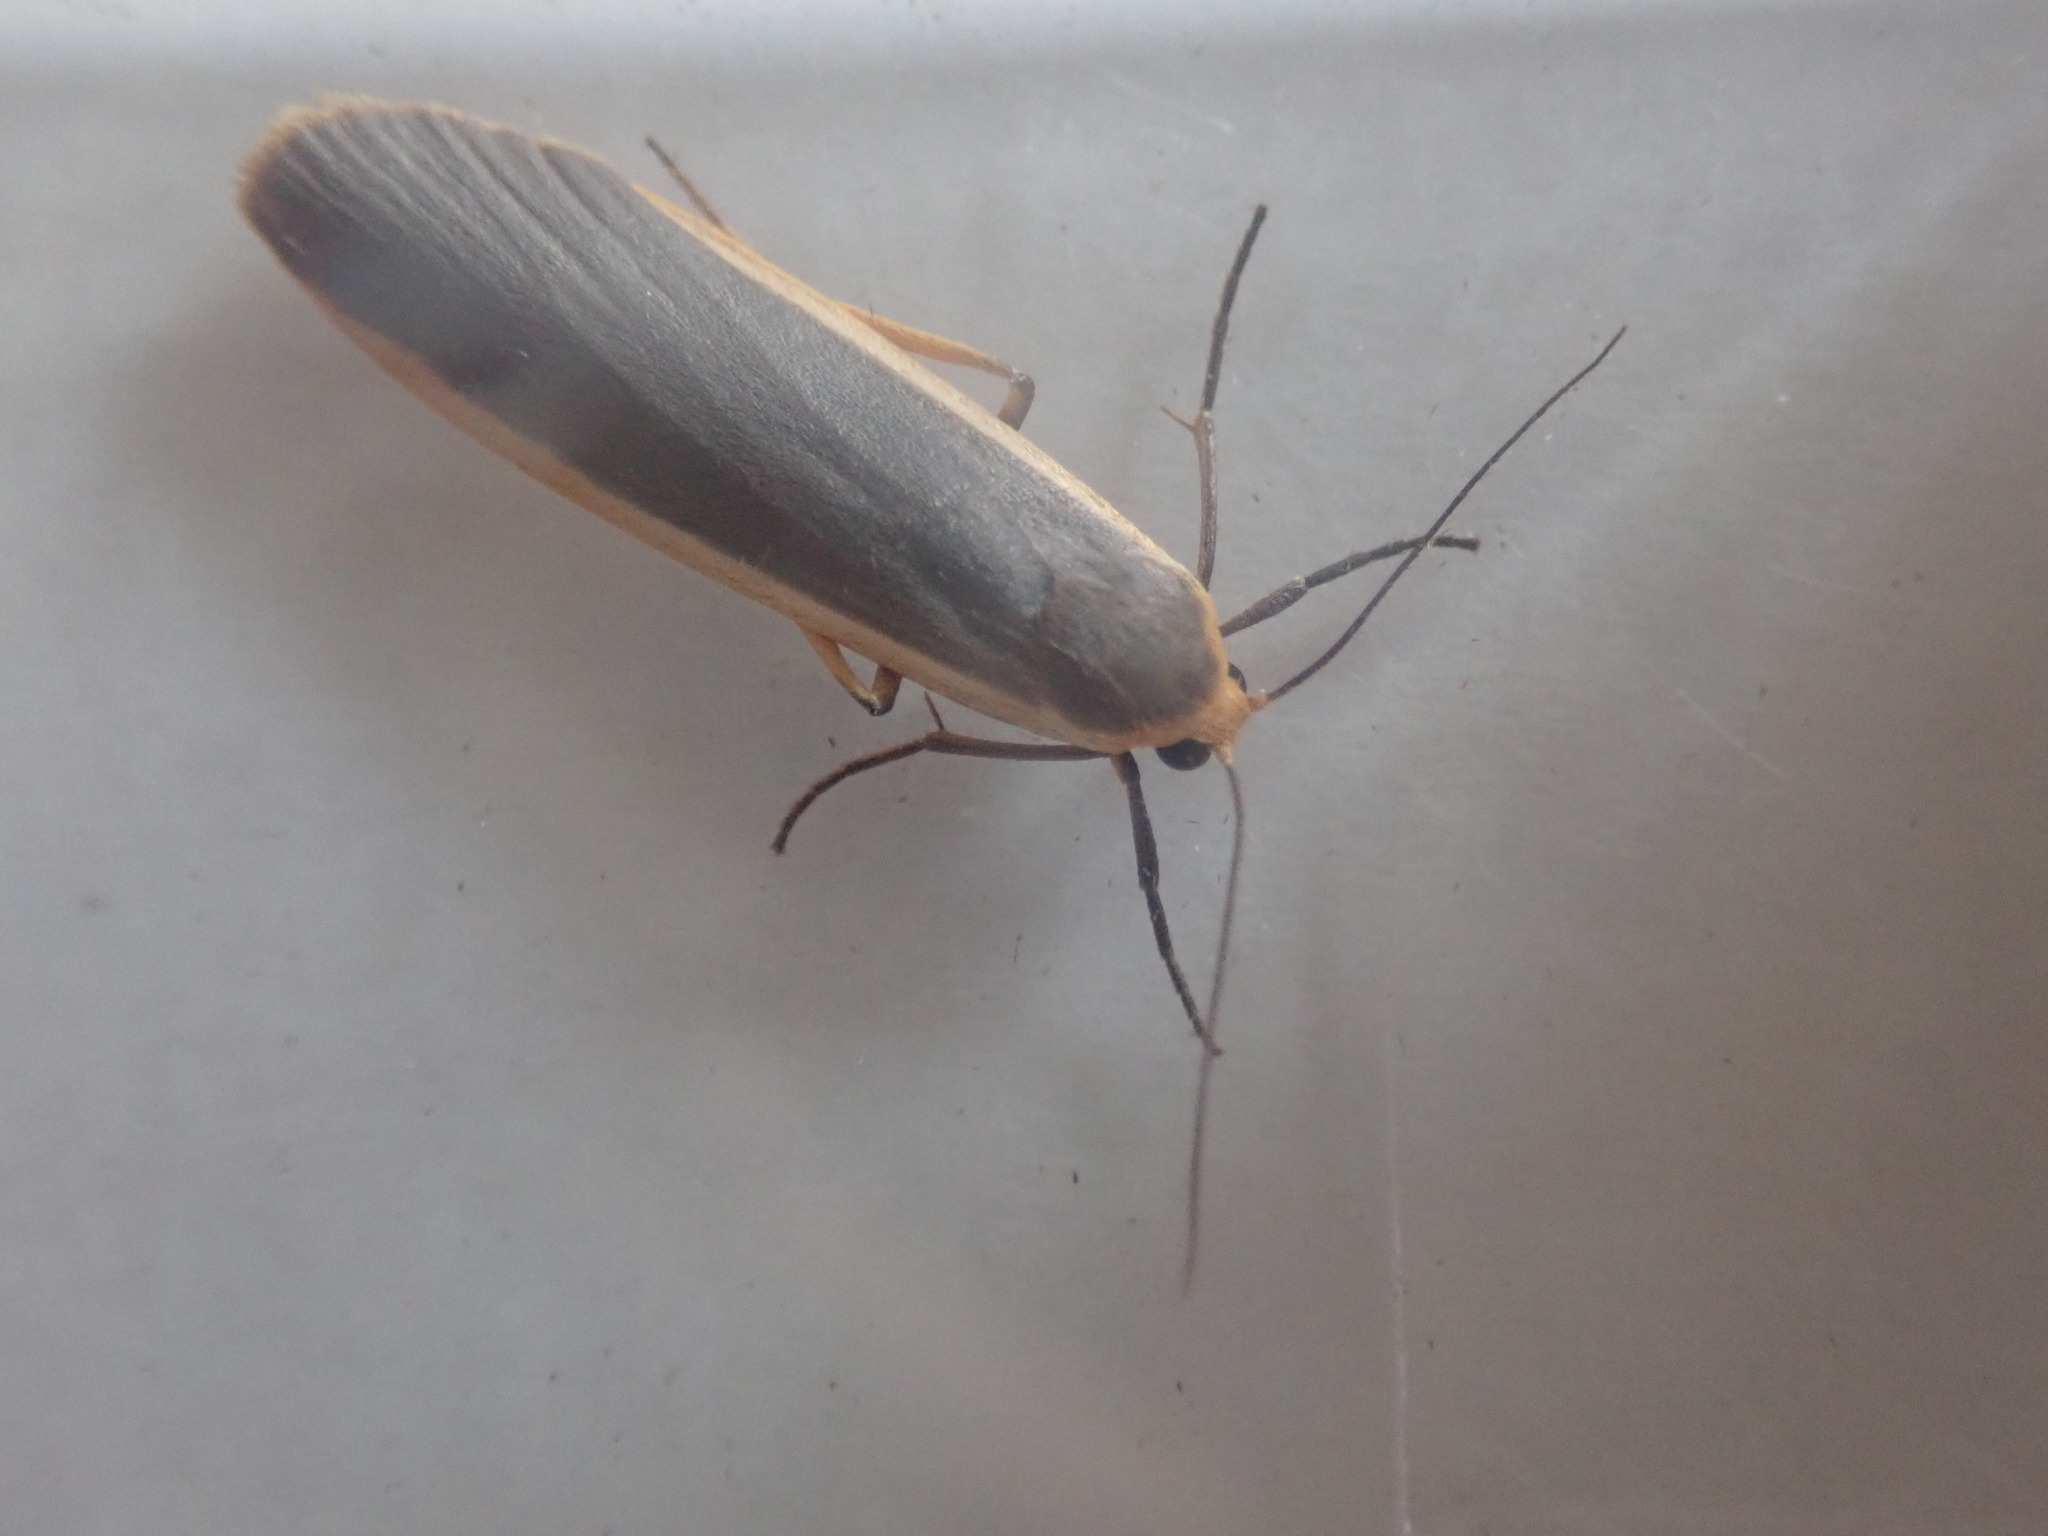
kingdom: Animalia
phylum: Arthropoda
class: Insecta
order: Lepidoptera
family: Erebidae
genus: Nyea
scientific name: Nyea lurideola
